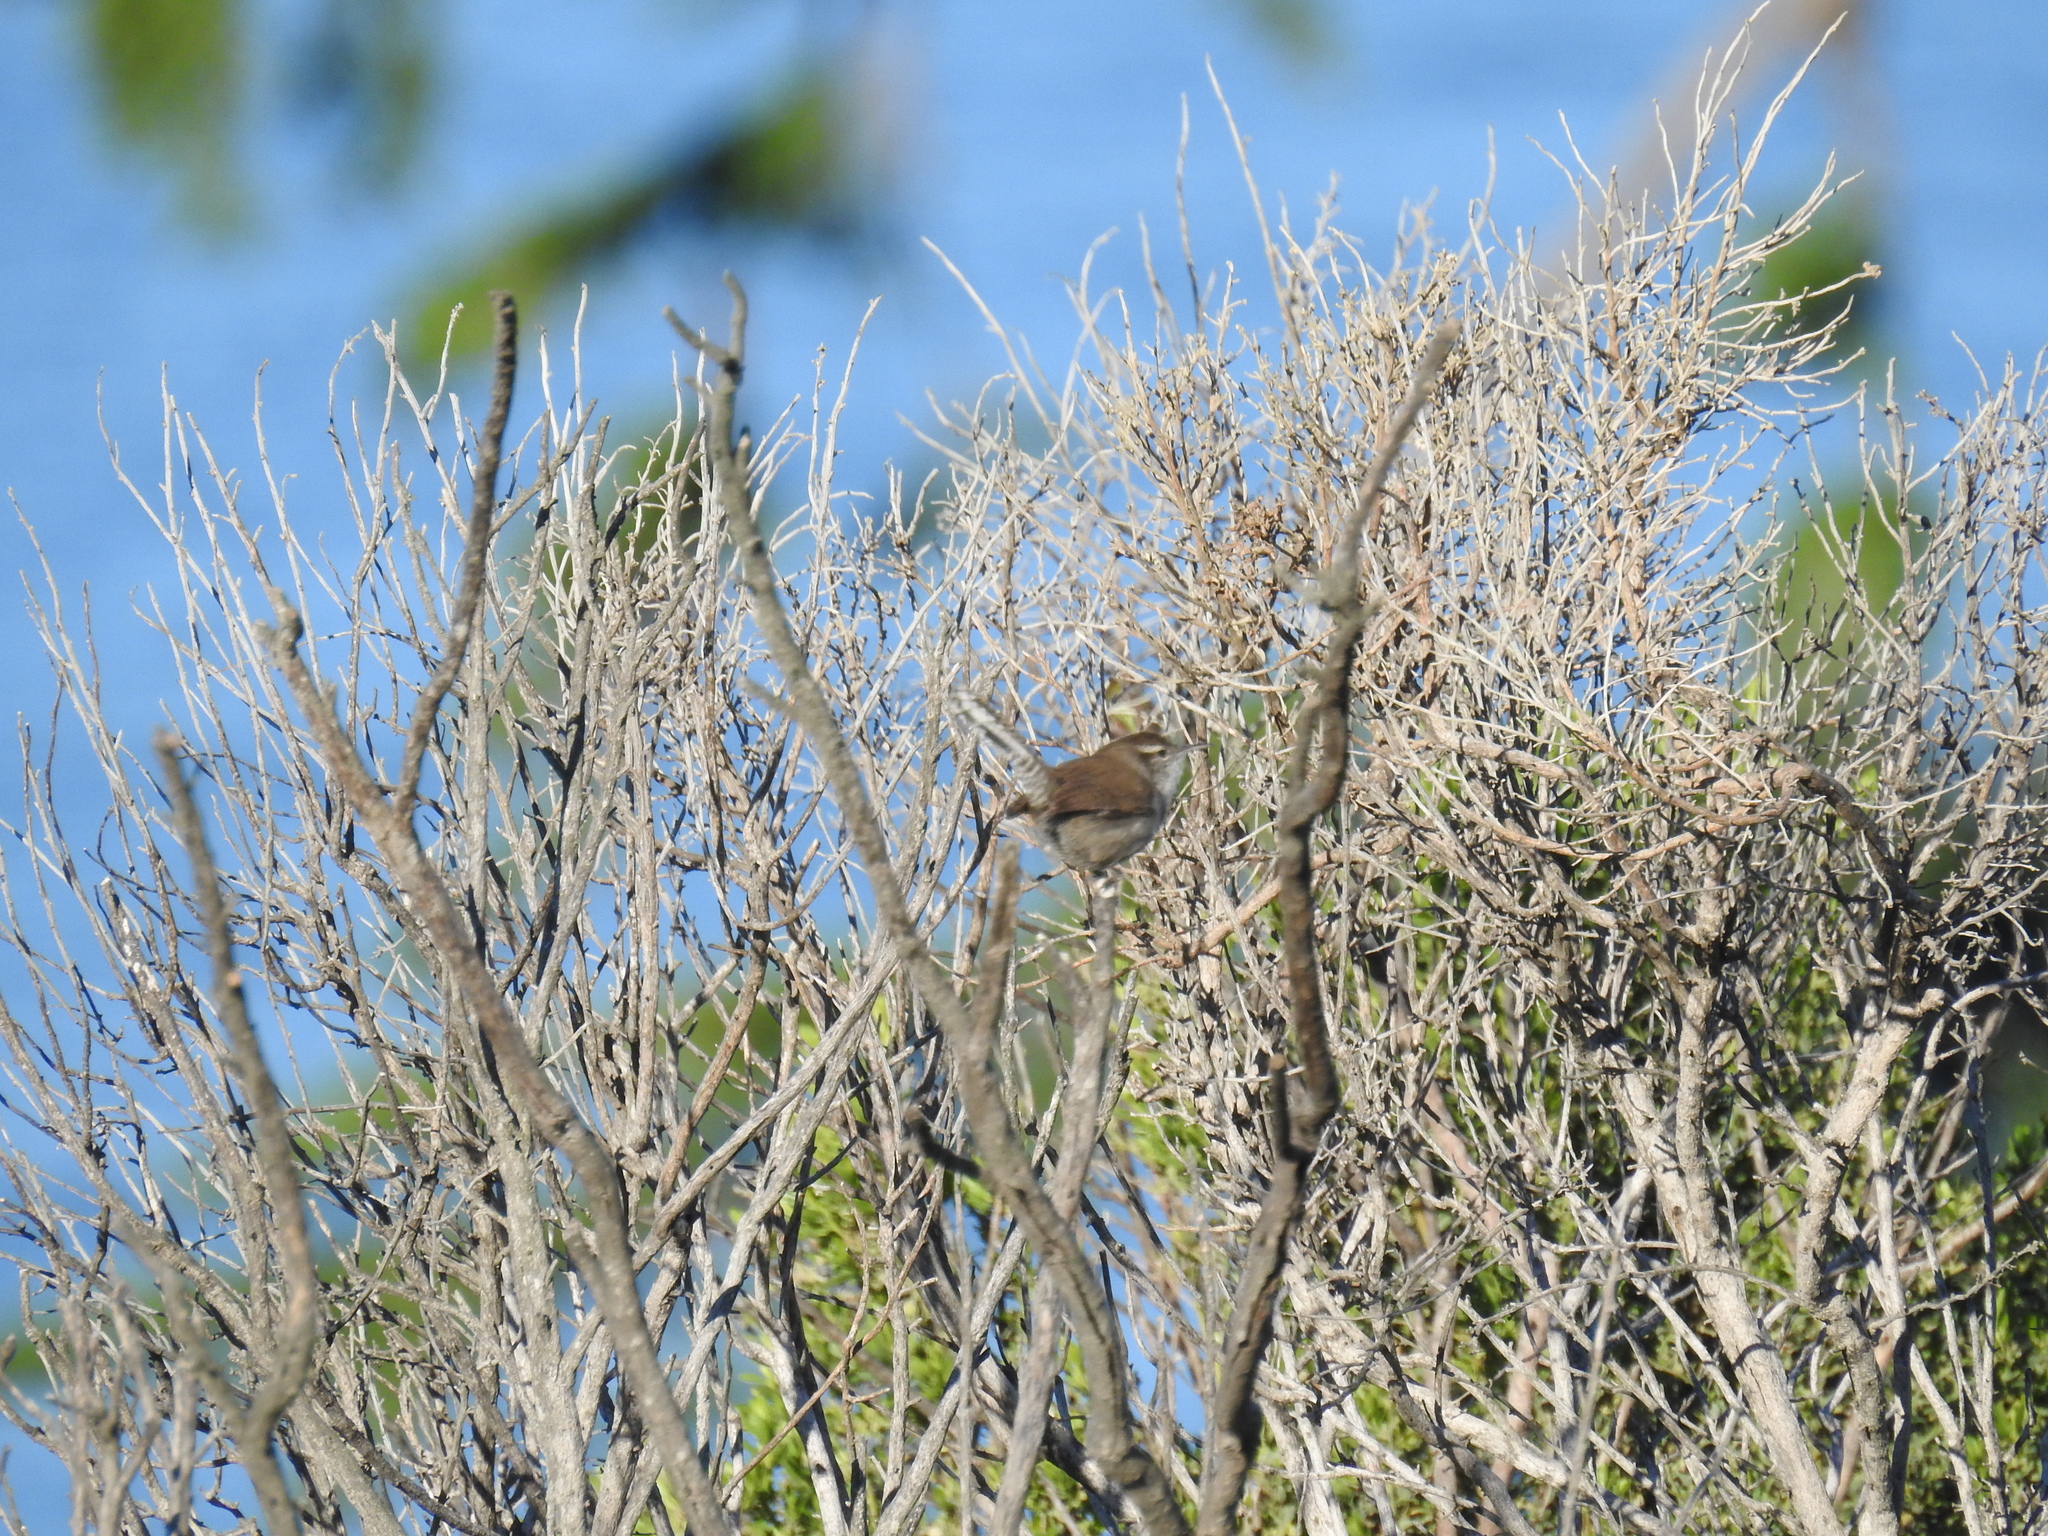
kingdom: Animalia
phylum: Chordata
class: Aves
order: Passeriformes
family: Troglodytidae
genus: Thryomanes
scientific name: Thryomanes bewickii
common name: Bewick's wren
